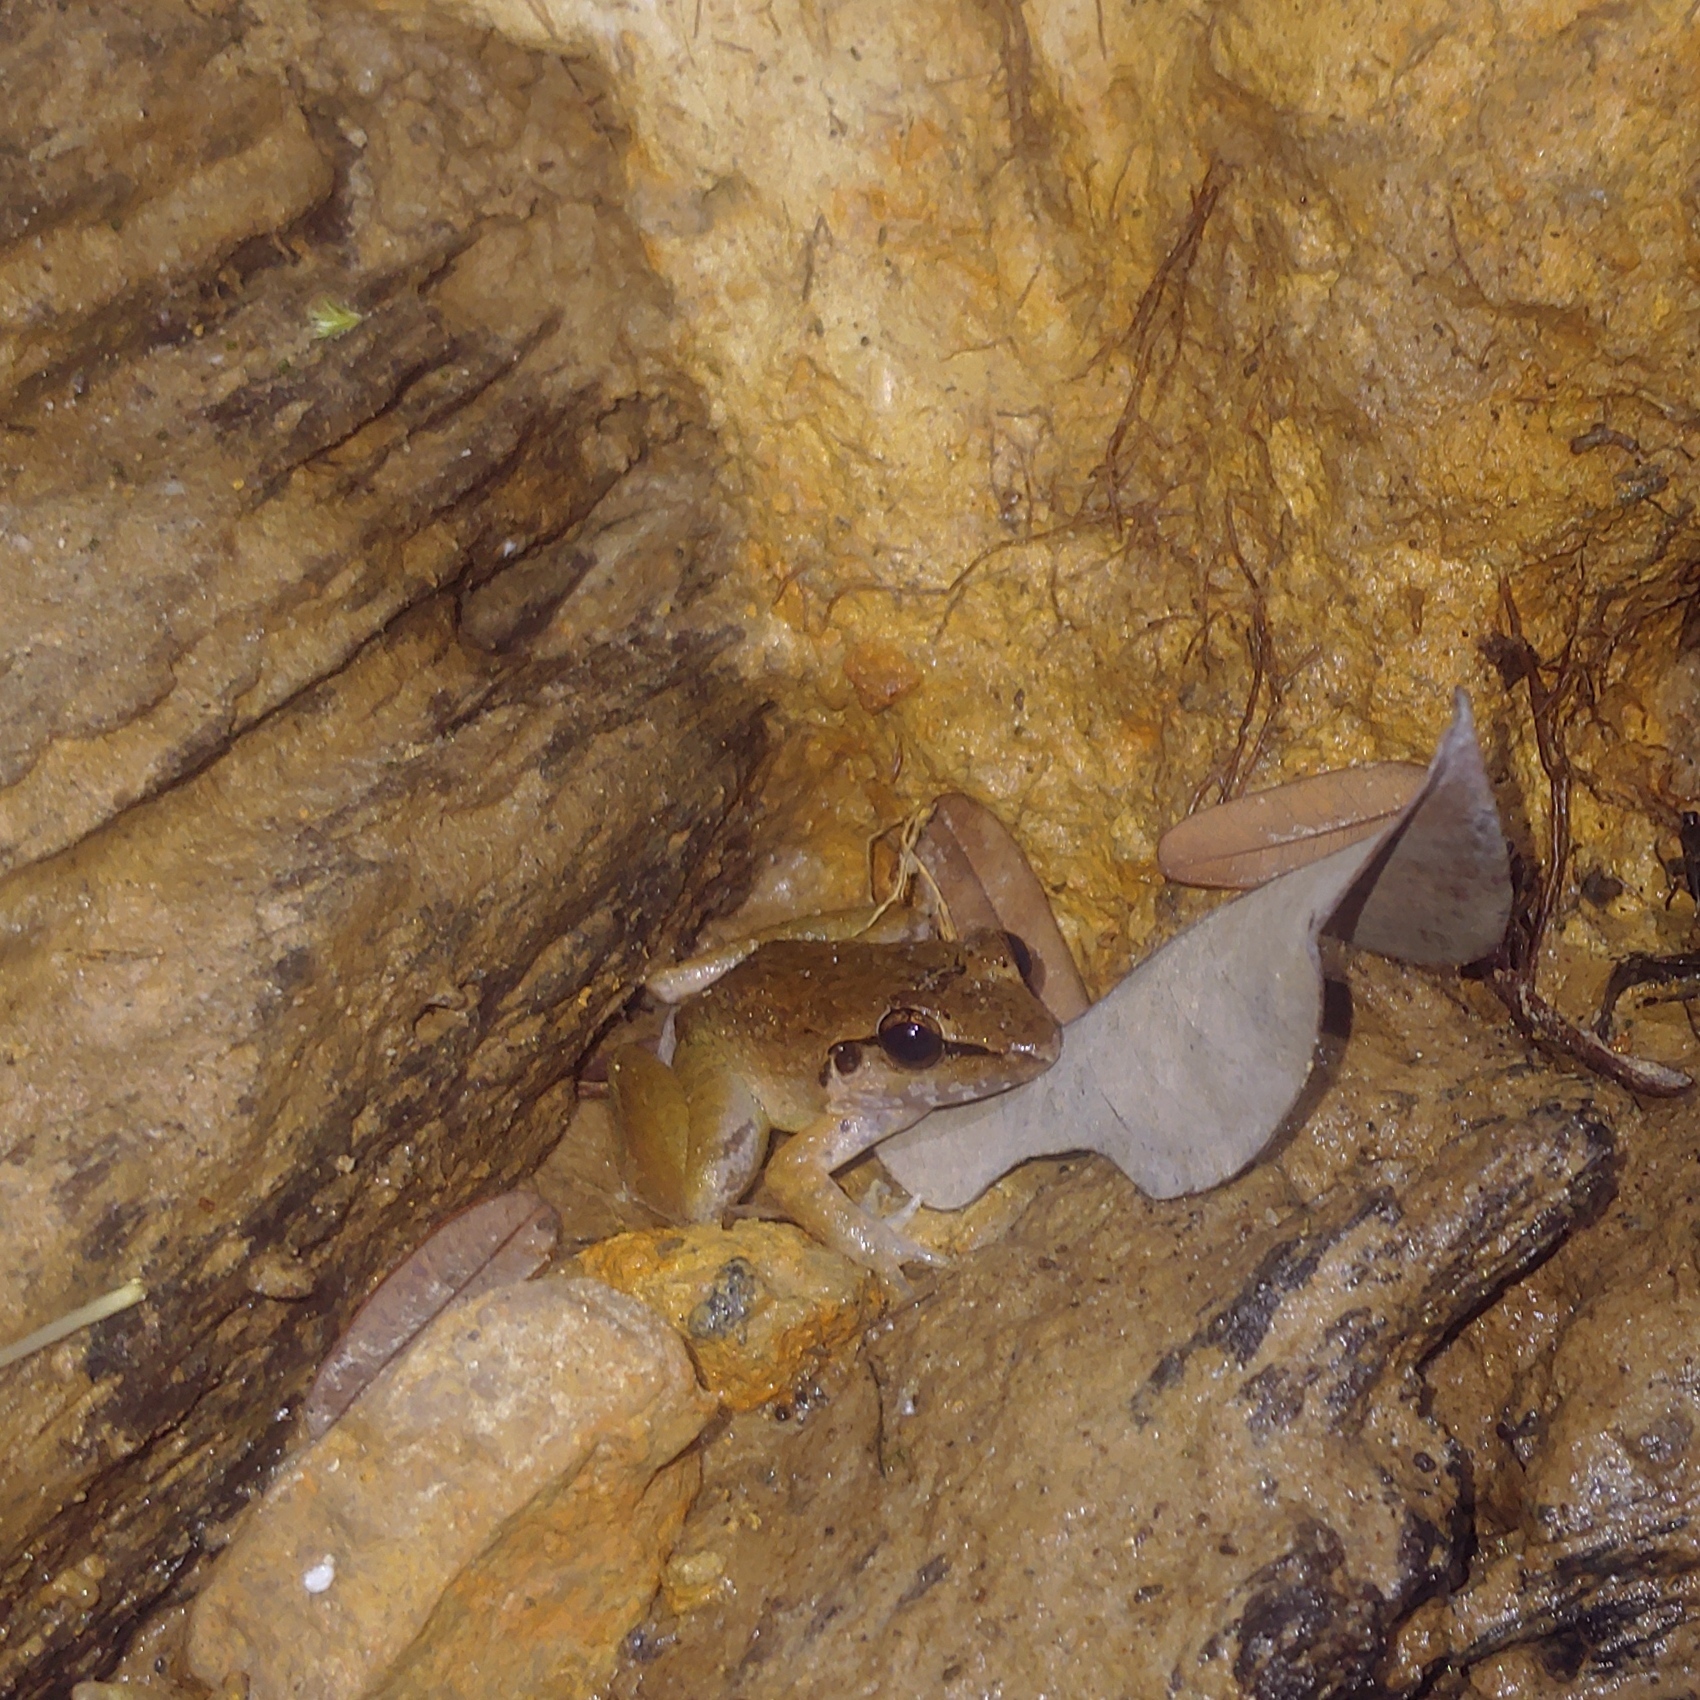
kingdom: Animalia
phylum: Chordata
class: Amphibia
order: Anura
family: Dicroglossidae
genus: Limnonectes
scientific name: Limnonectes palavanensis
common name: Smooth guardian frog
